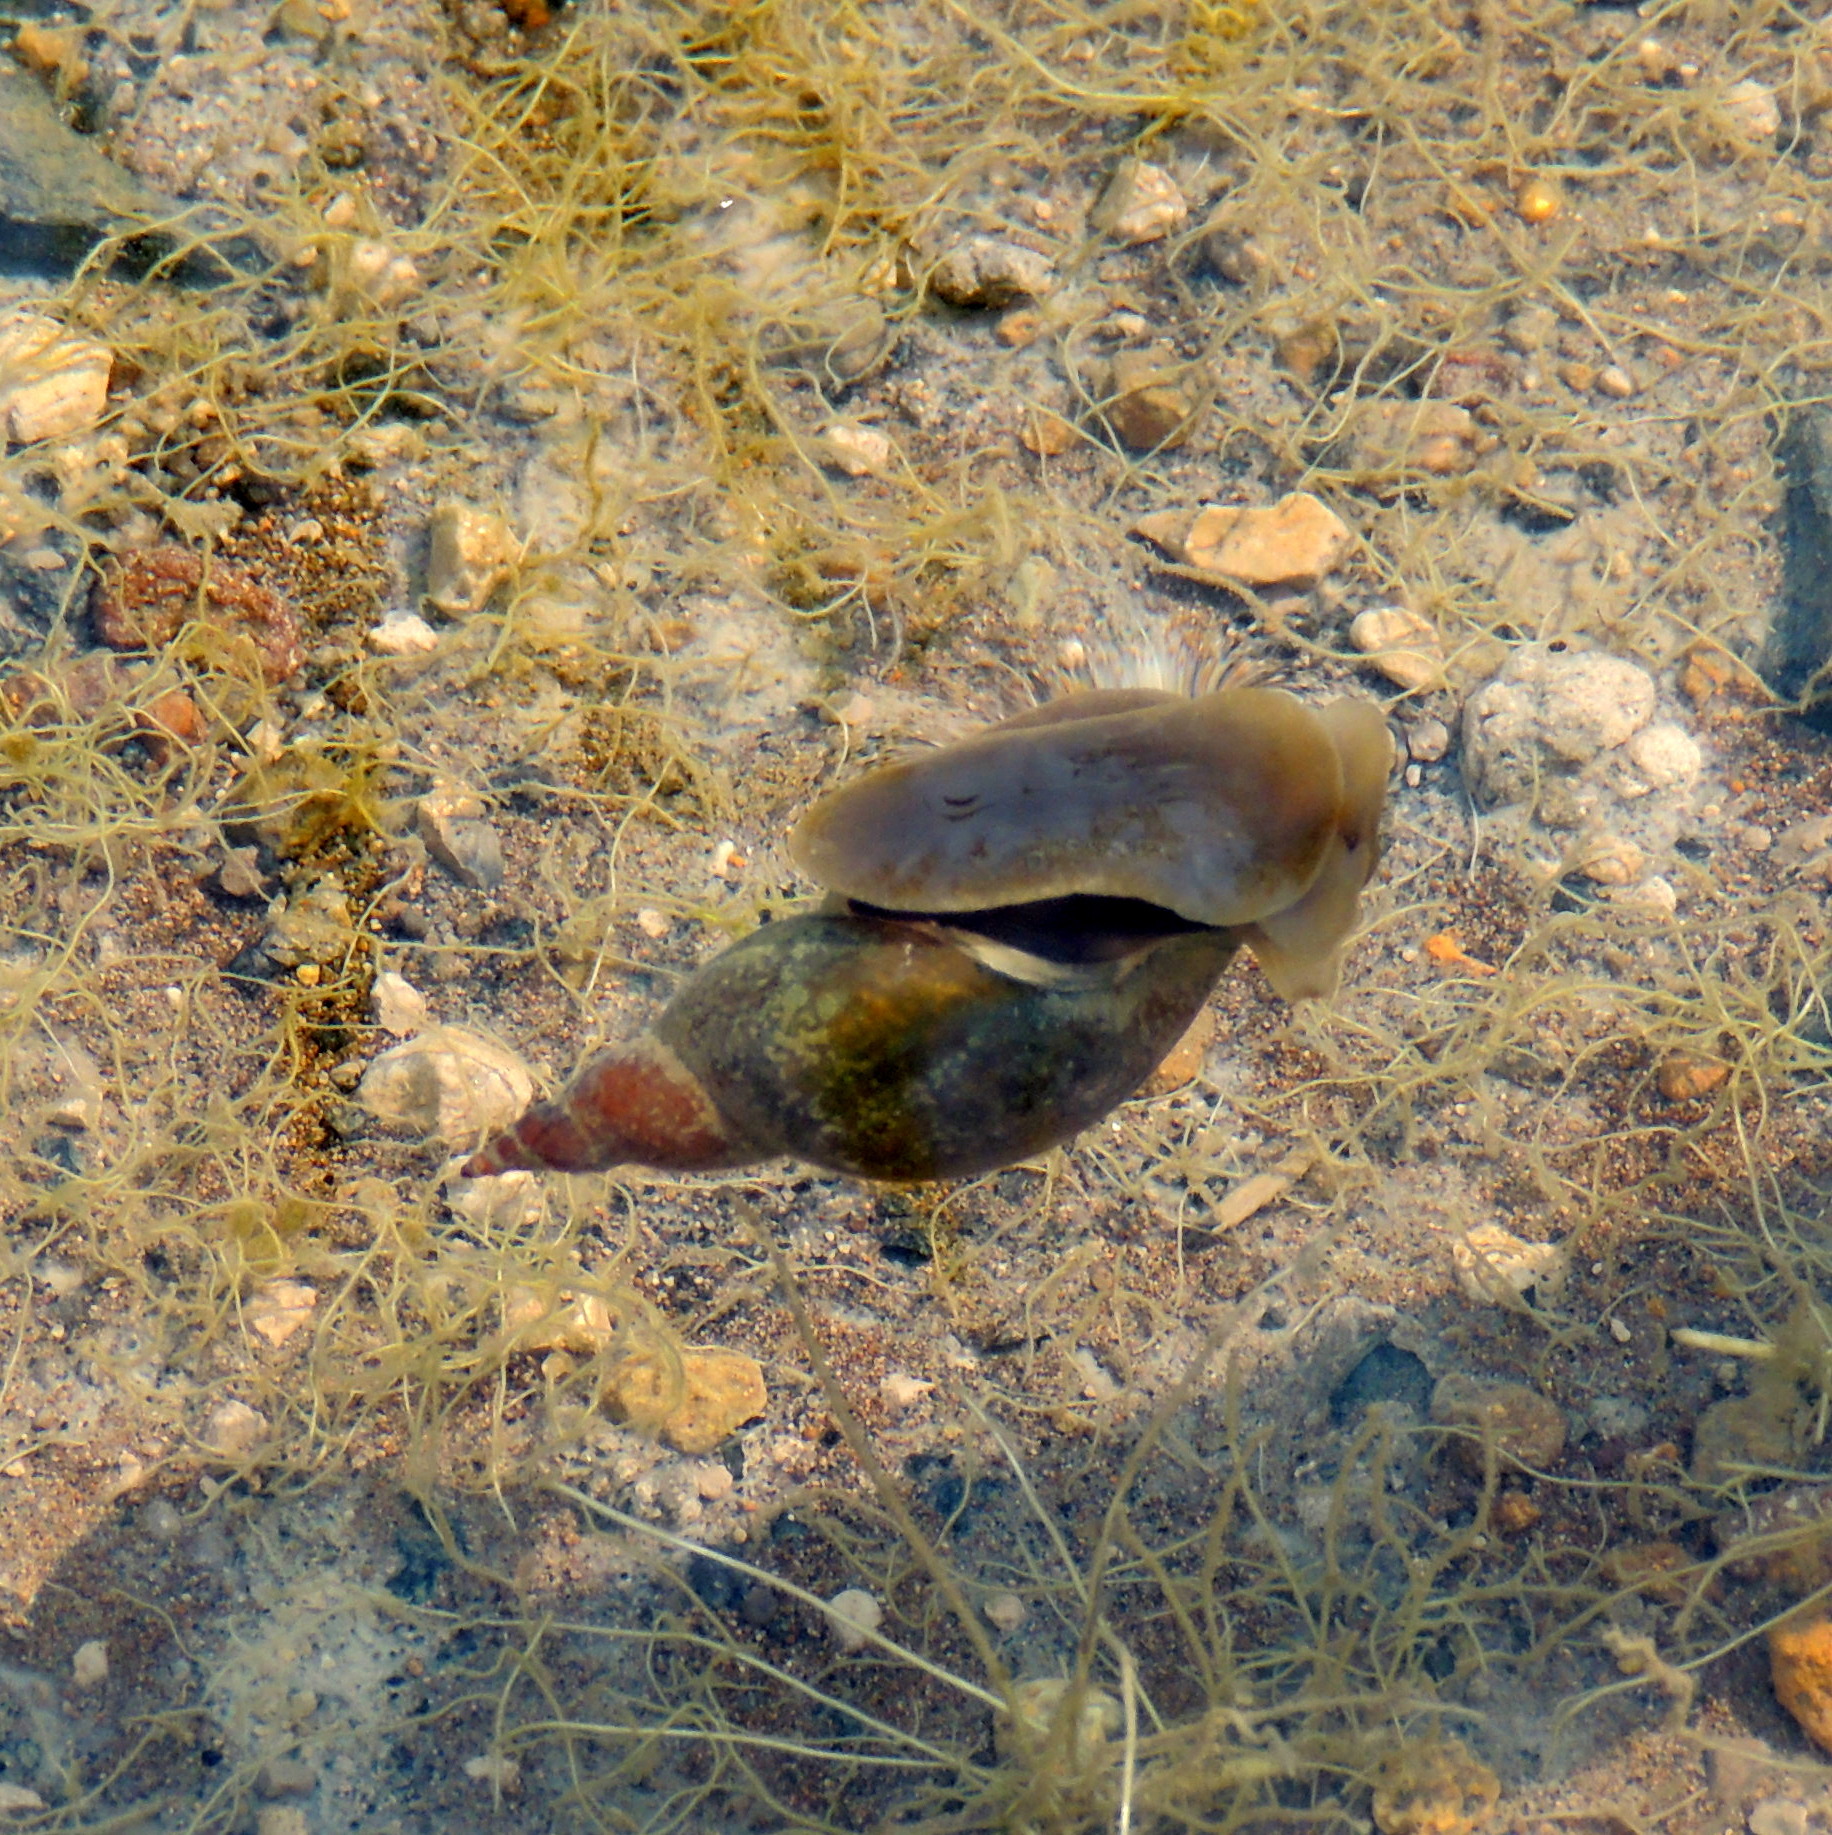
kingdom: Animalia
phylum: Mollusca
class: Gastropoda
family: Lymnaeidae
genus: Lymnaea
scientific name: Lymnaea stagnalis
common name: Great pond snail
